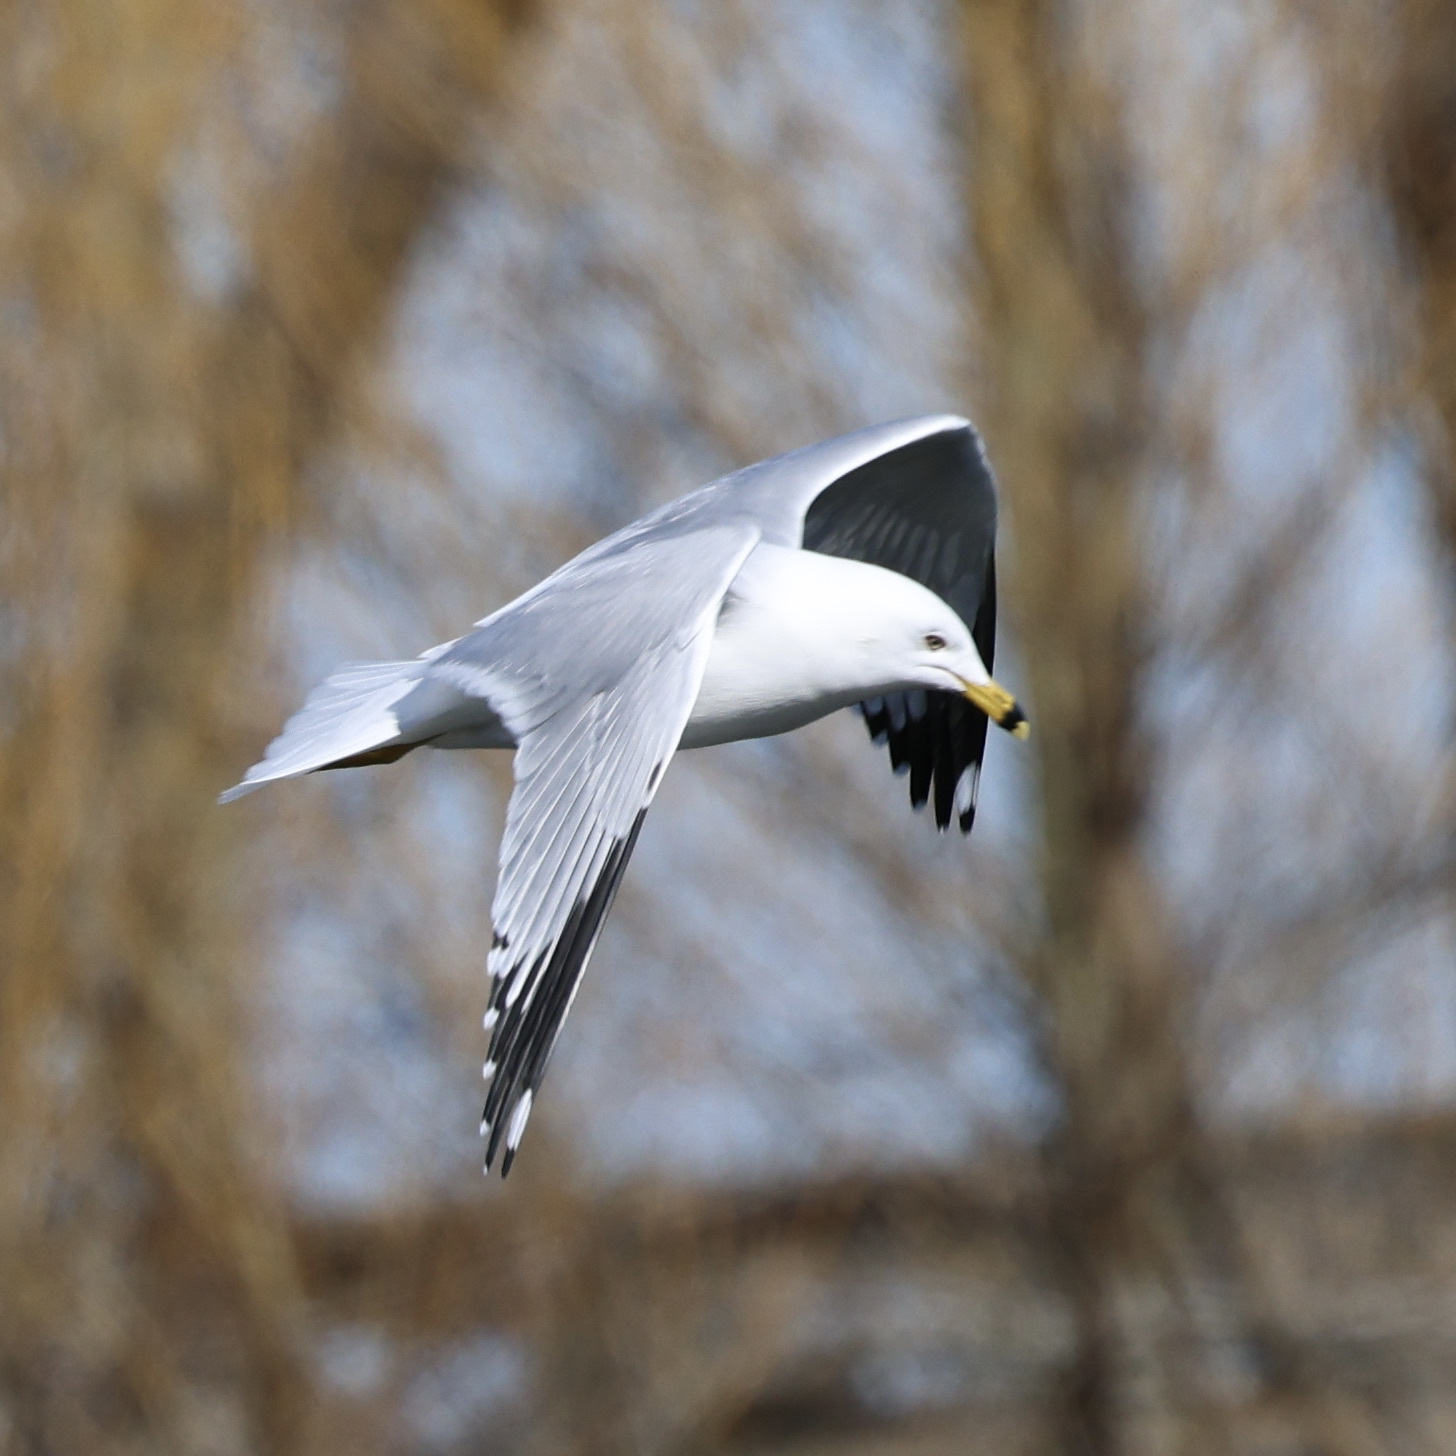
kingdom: Animalia
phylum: Chordata
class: Aves
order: Charadriiformes
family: Laridae
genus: Larus
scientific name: Larus delawarensis
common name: Ring-billed gull
